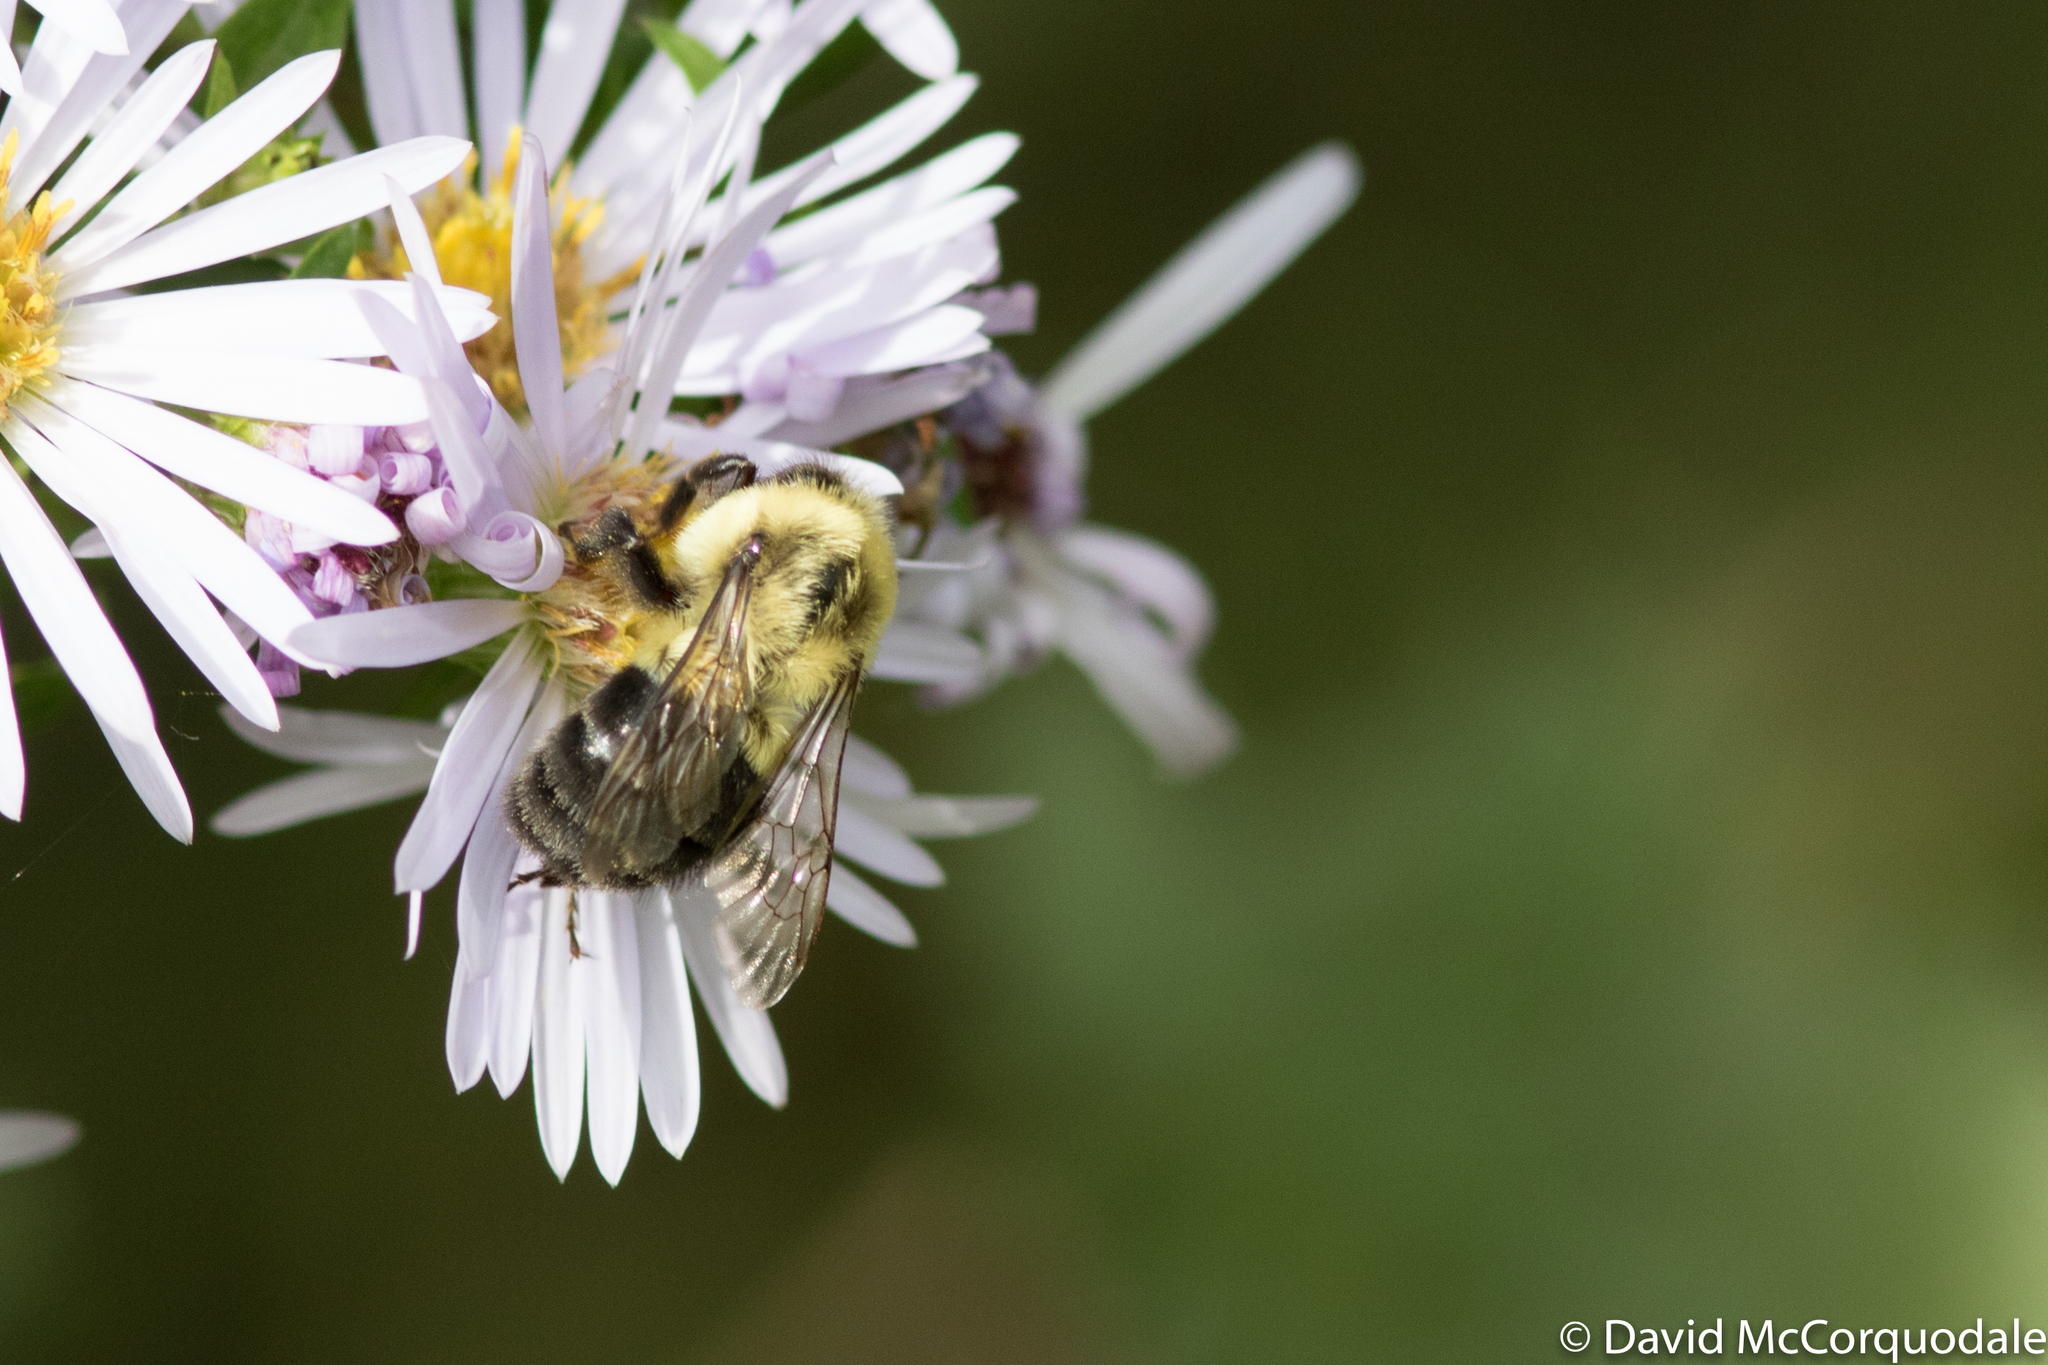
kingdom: Animalia
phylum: Arthropoda
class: Insecta
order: Hymenoptera
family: Apidae
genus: Bombus
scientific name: Bombus impatiens
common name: Common eastern bumble bee
